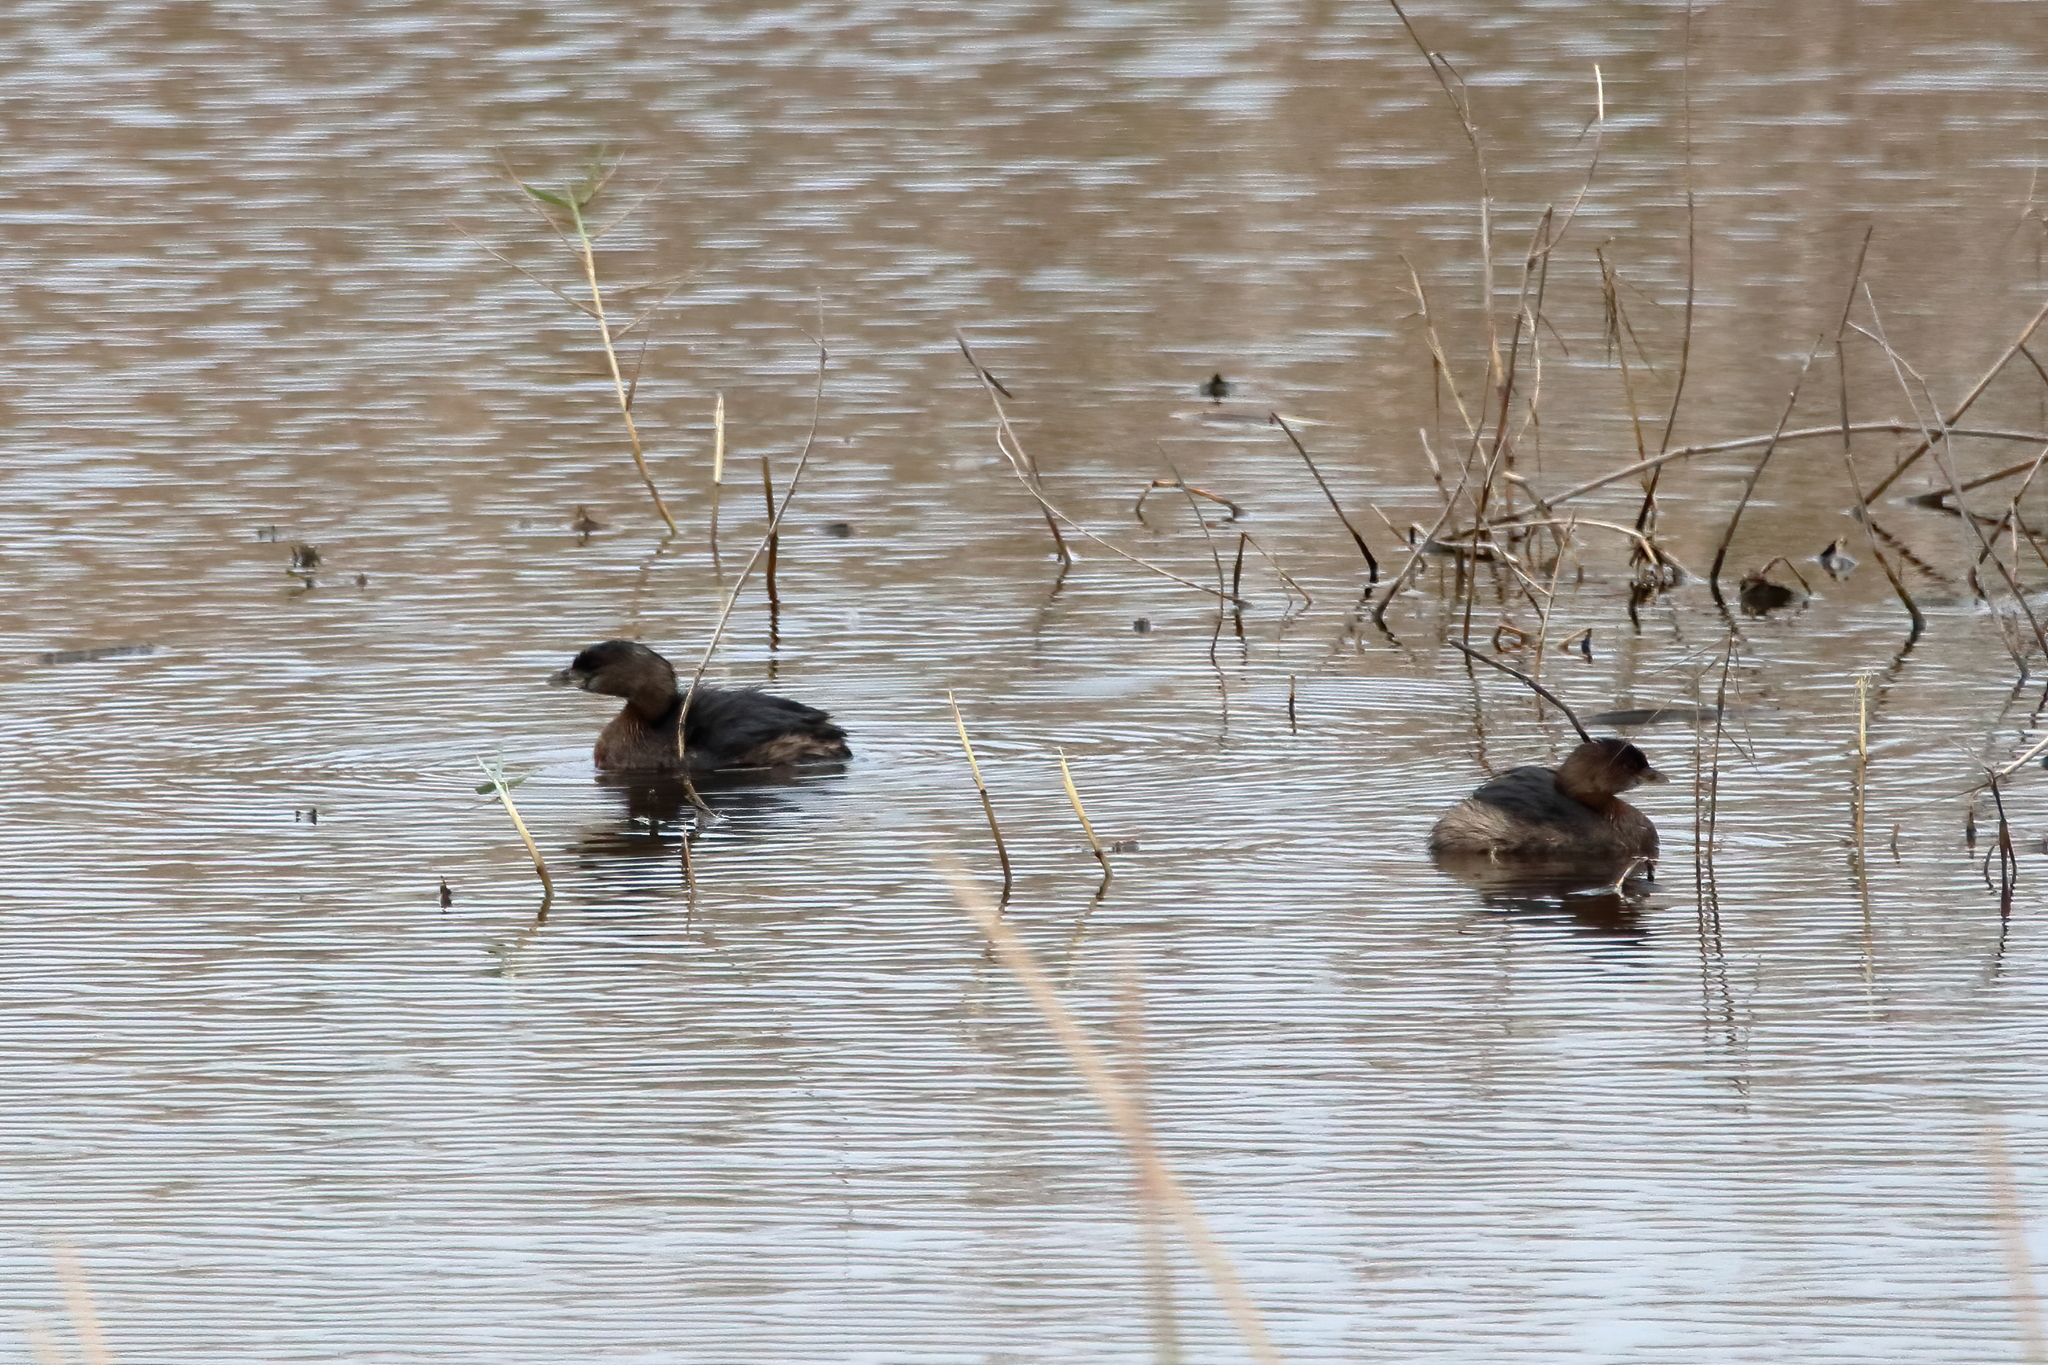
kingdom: Animalia
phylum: Chordata
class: Aves
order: Podicipediformes
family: Podicipedidae
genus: Podilymbus
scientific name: Podilymbus podiceps
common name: Pied-billed grebe
